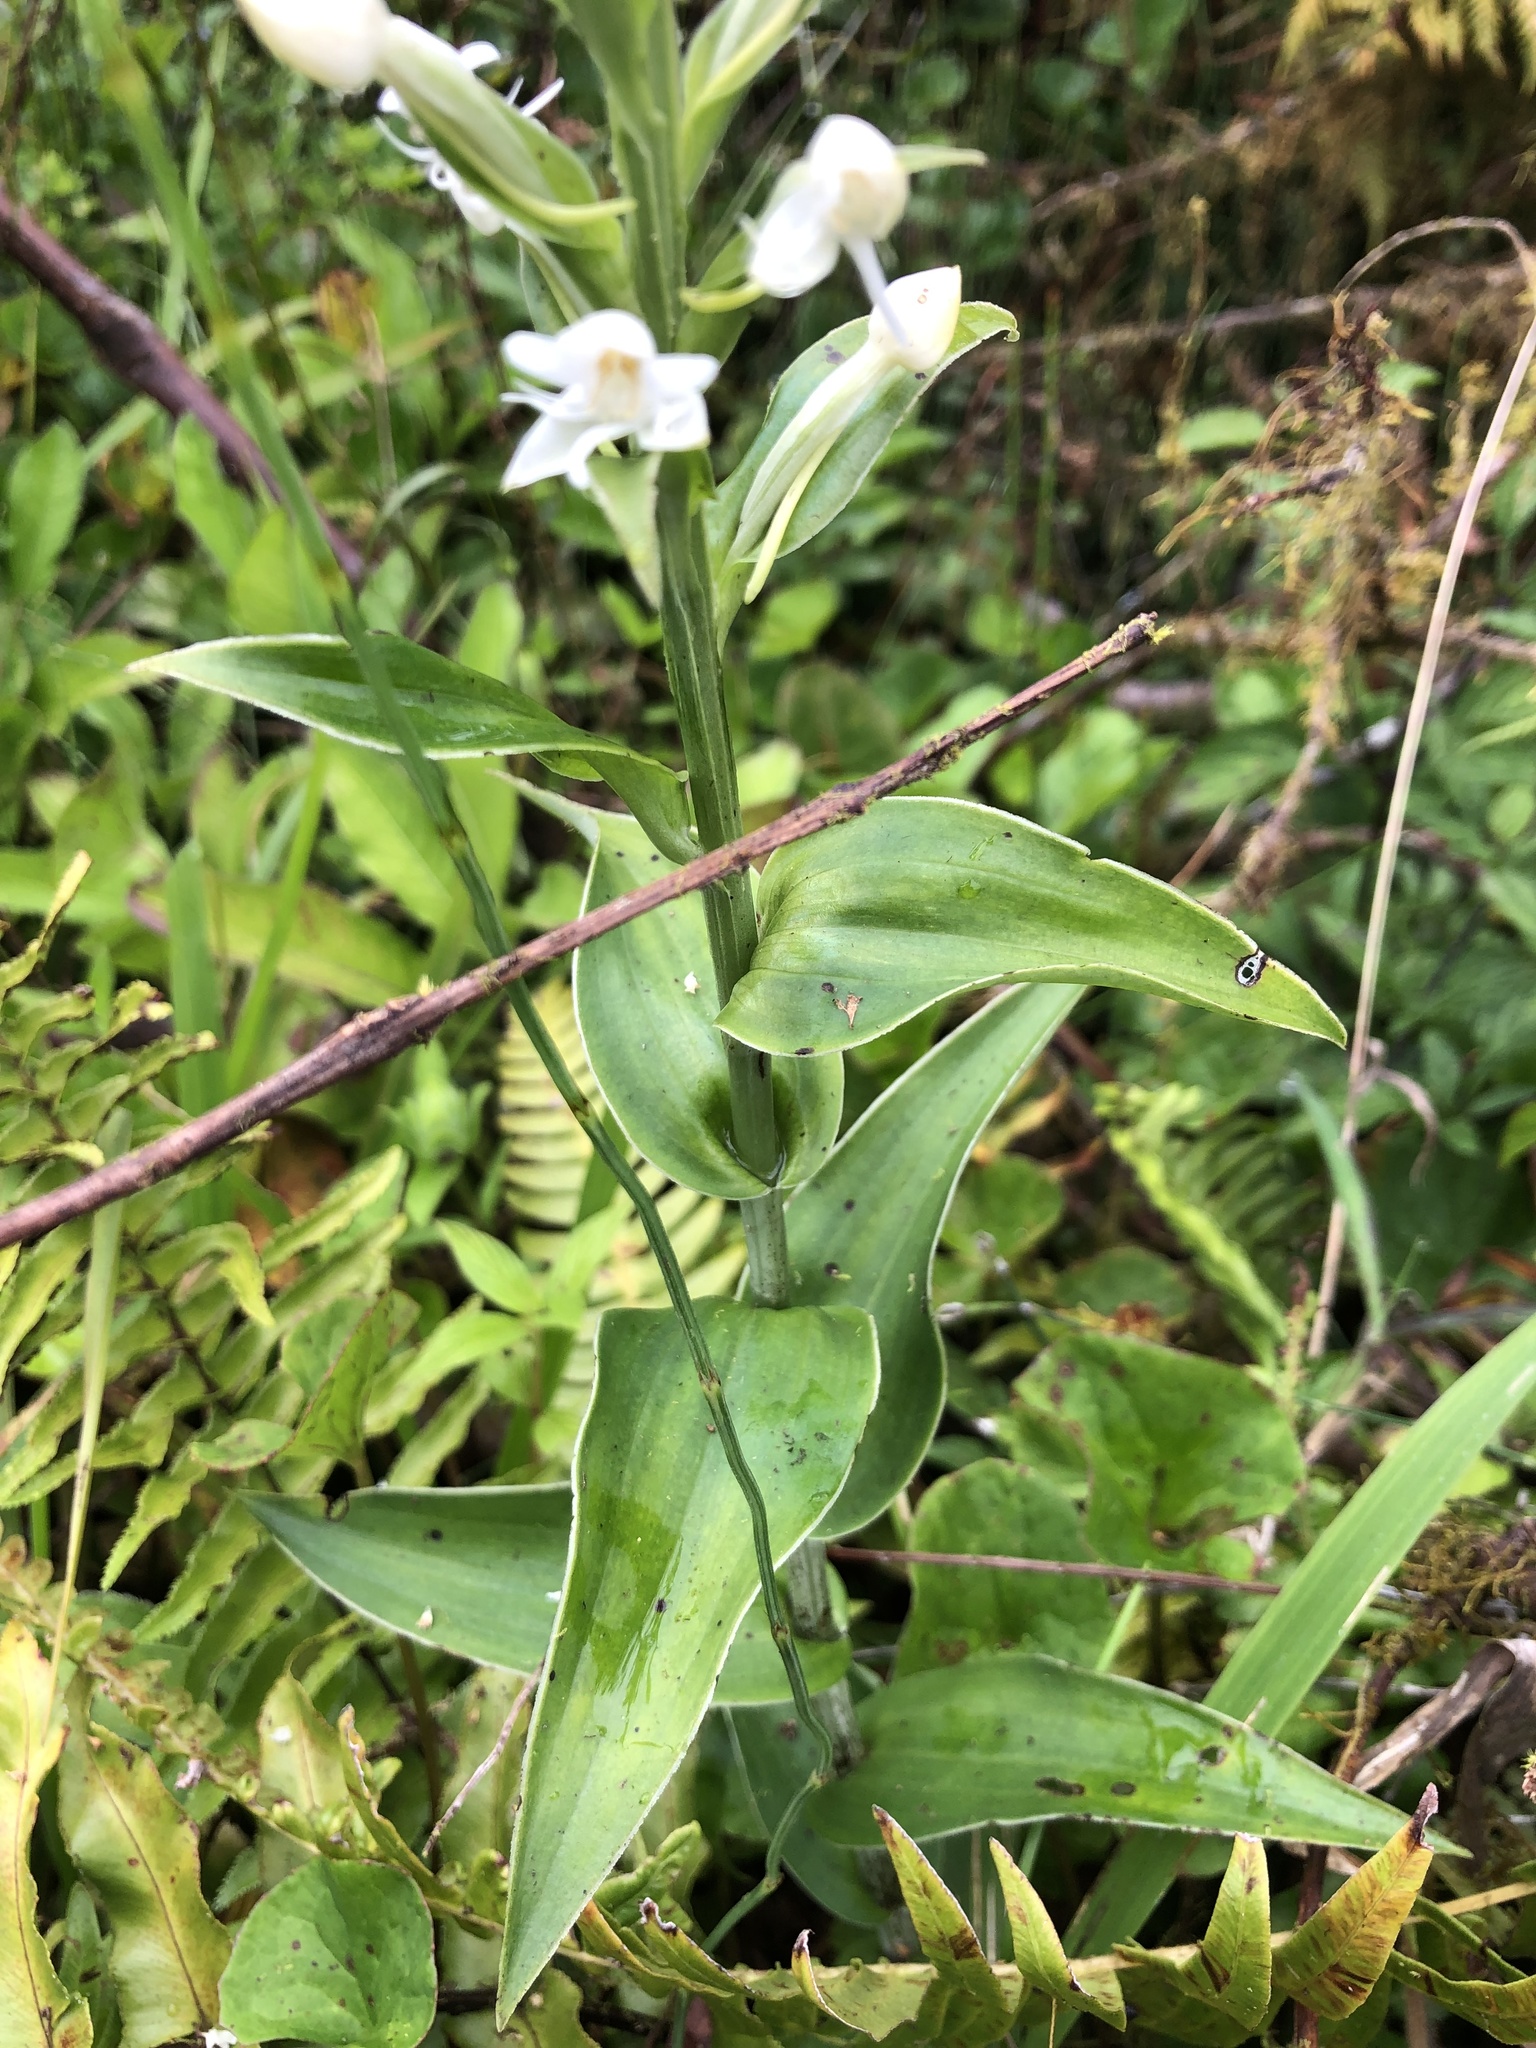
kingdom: Plantae
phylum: Tracheophyta
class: Liliopsida
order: Asparagales
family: Orchidaceae
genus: Habenaria
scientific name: Habenaria monorrhiza
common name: Tropical bog orchid
